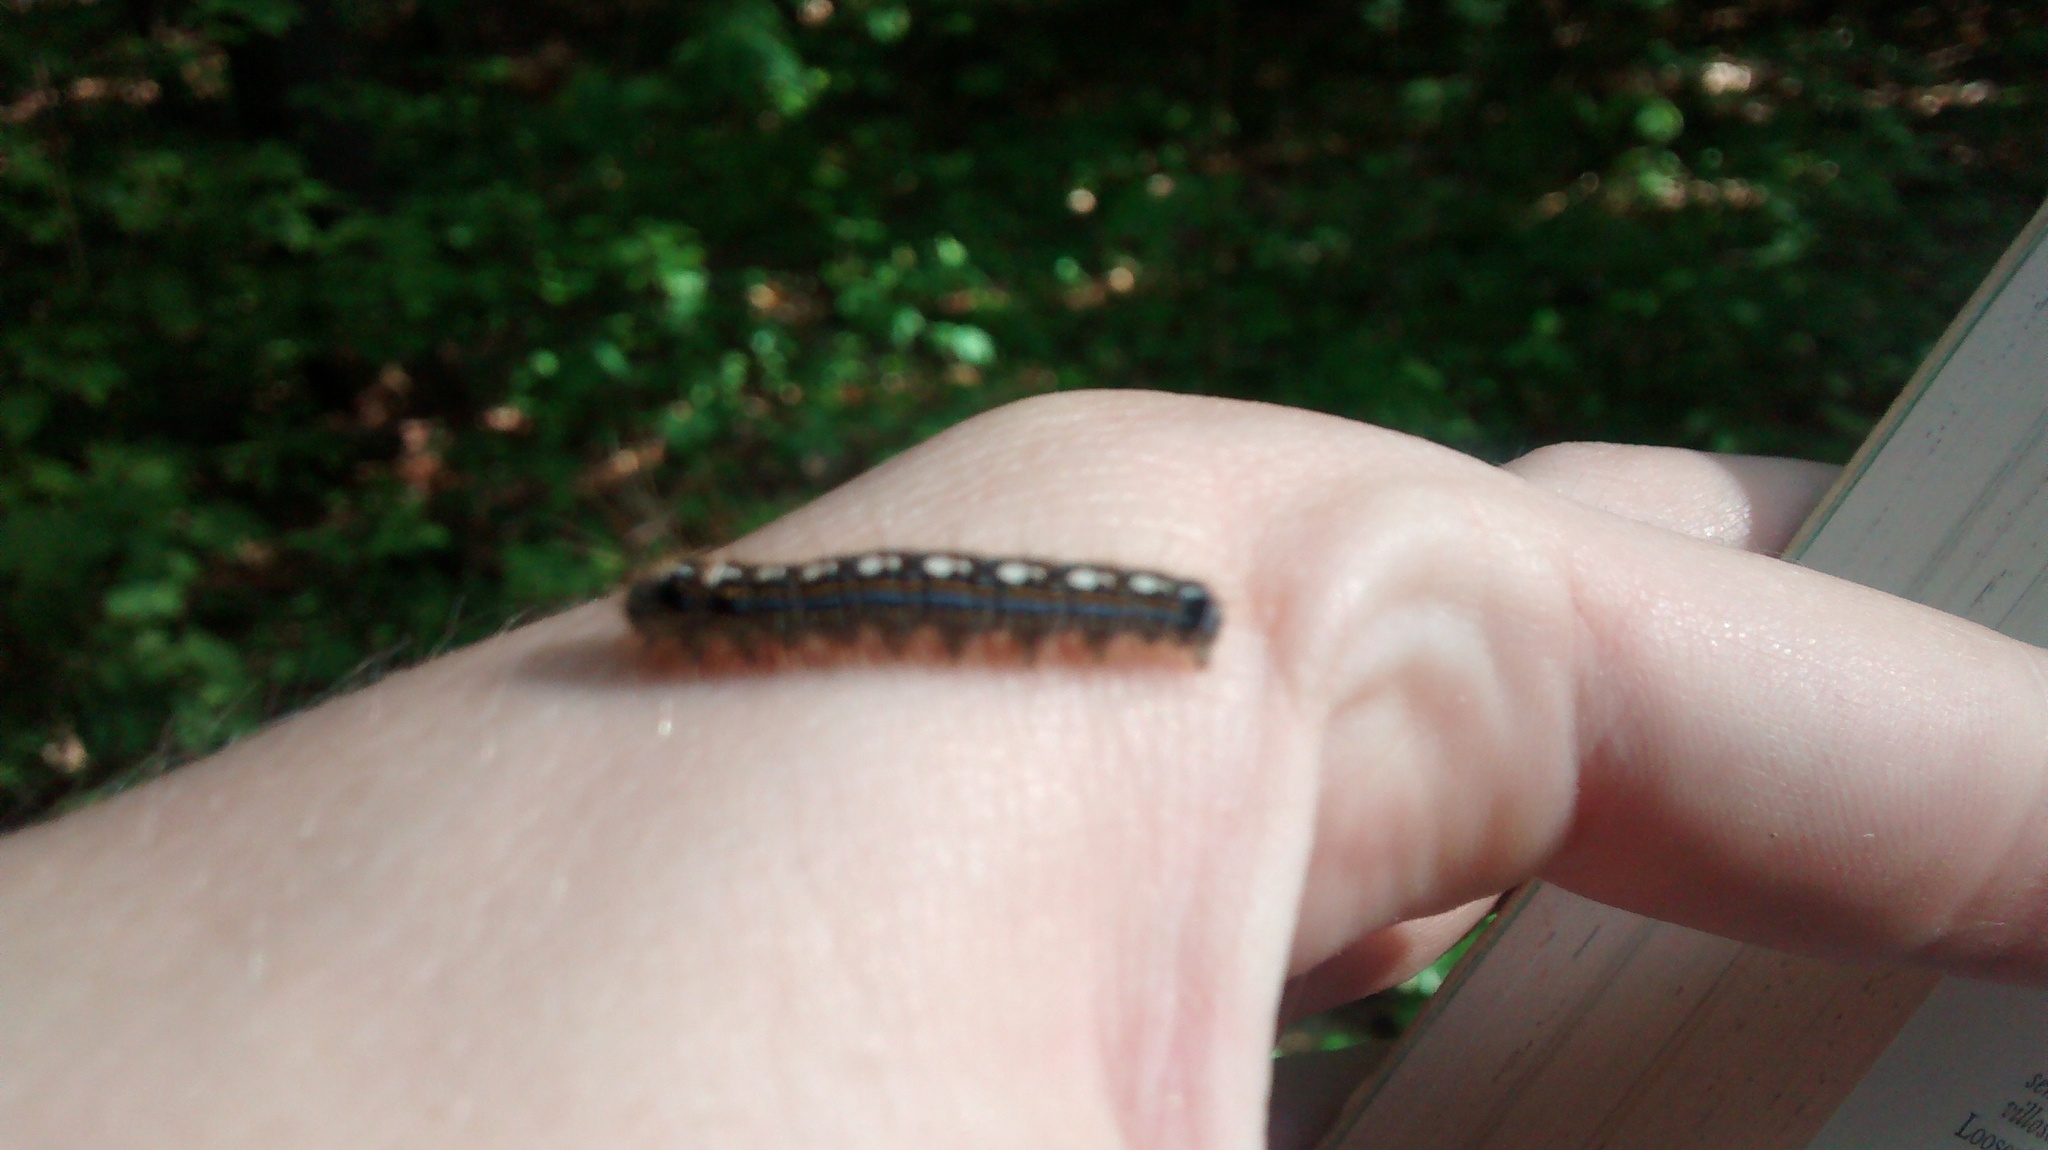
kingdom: Animalia
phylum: Arthropoda
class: Insecta
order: Lepidoptera
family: Lasiocampidae
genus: Malacosoma
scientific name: Malacosoma disstria
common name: Forest tent caterpillar
